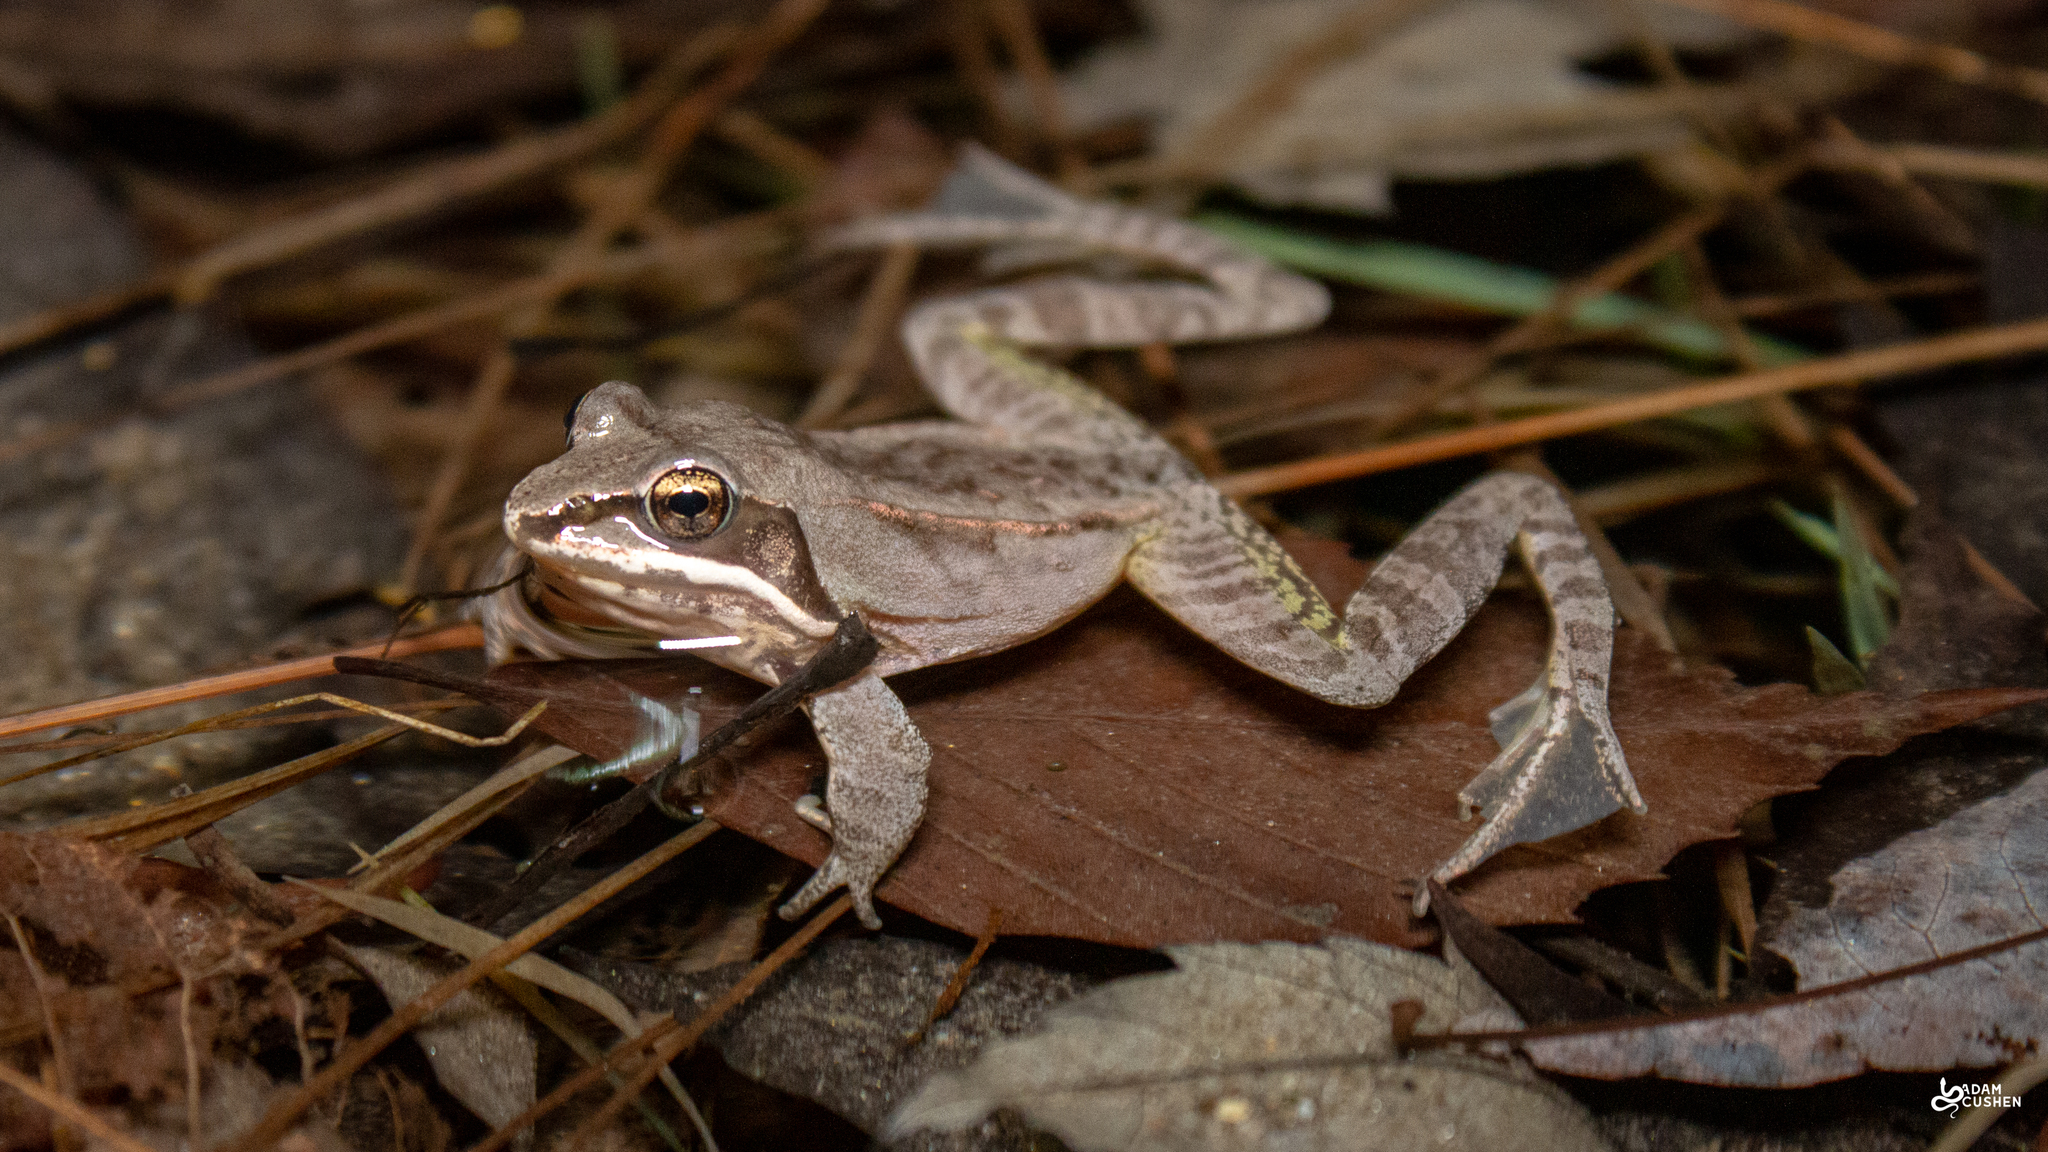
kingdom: Animalia
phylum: Chordata
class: Amphibia
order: Anura
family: Ranidae
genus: Lithobates
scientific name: Lithobates sylvaticus
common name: Wood frog
